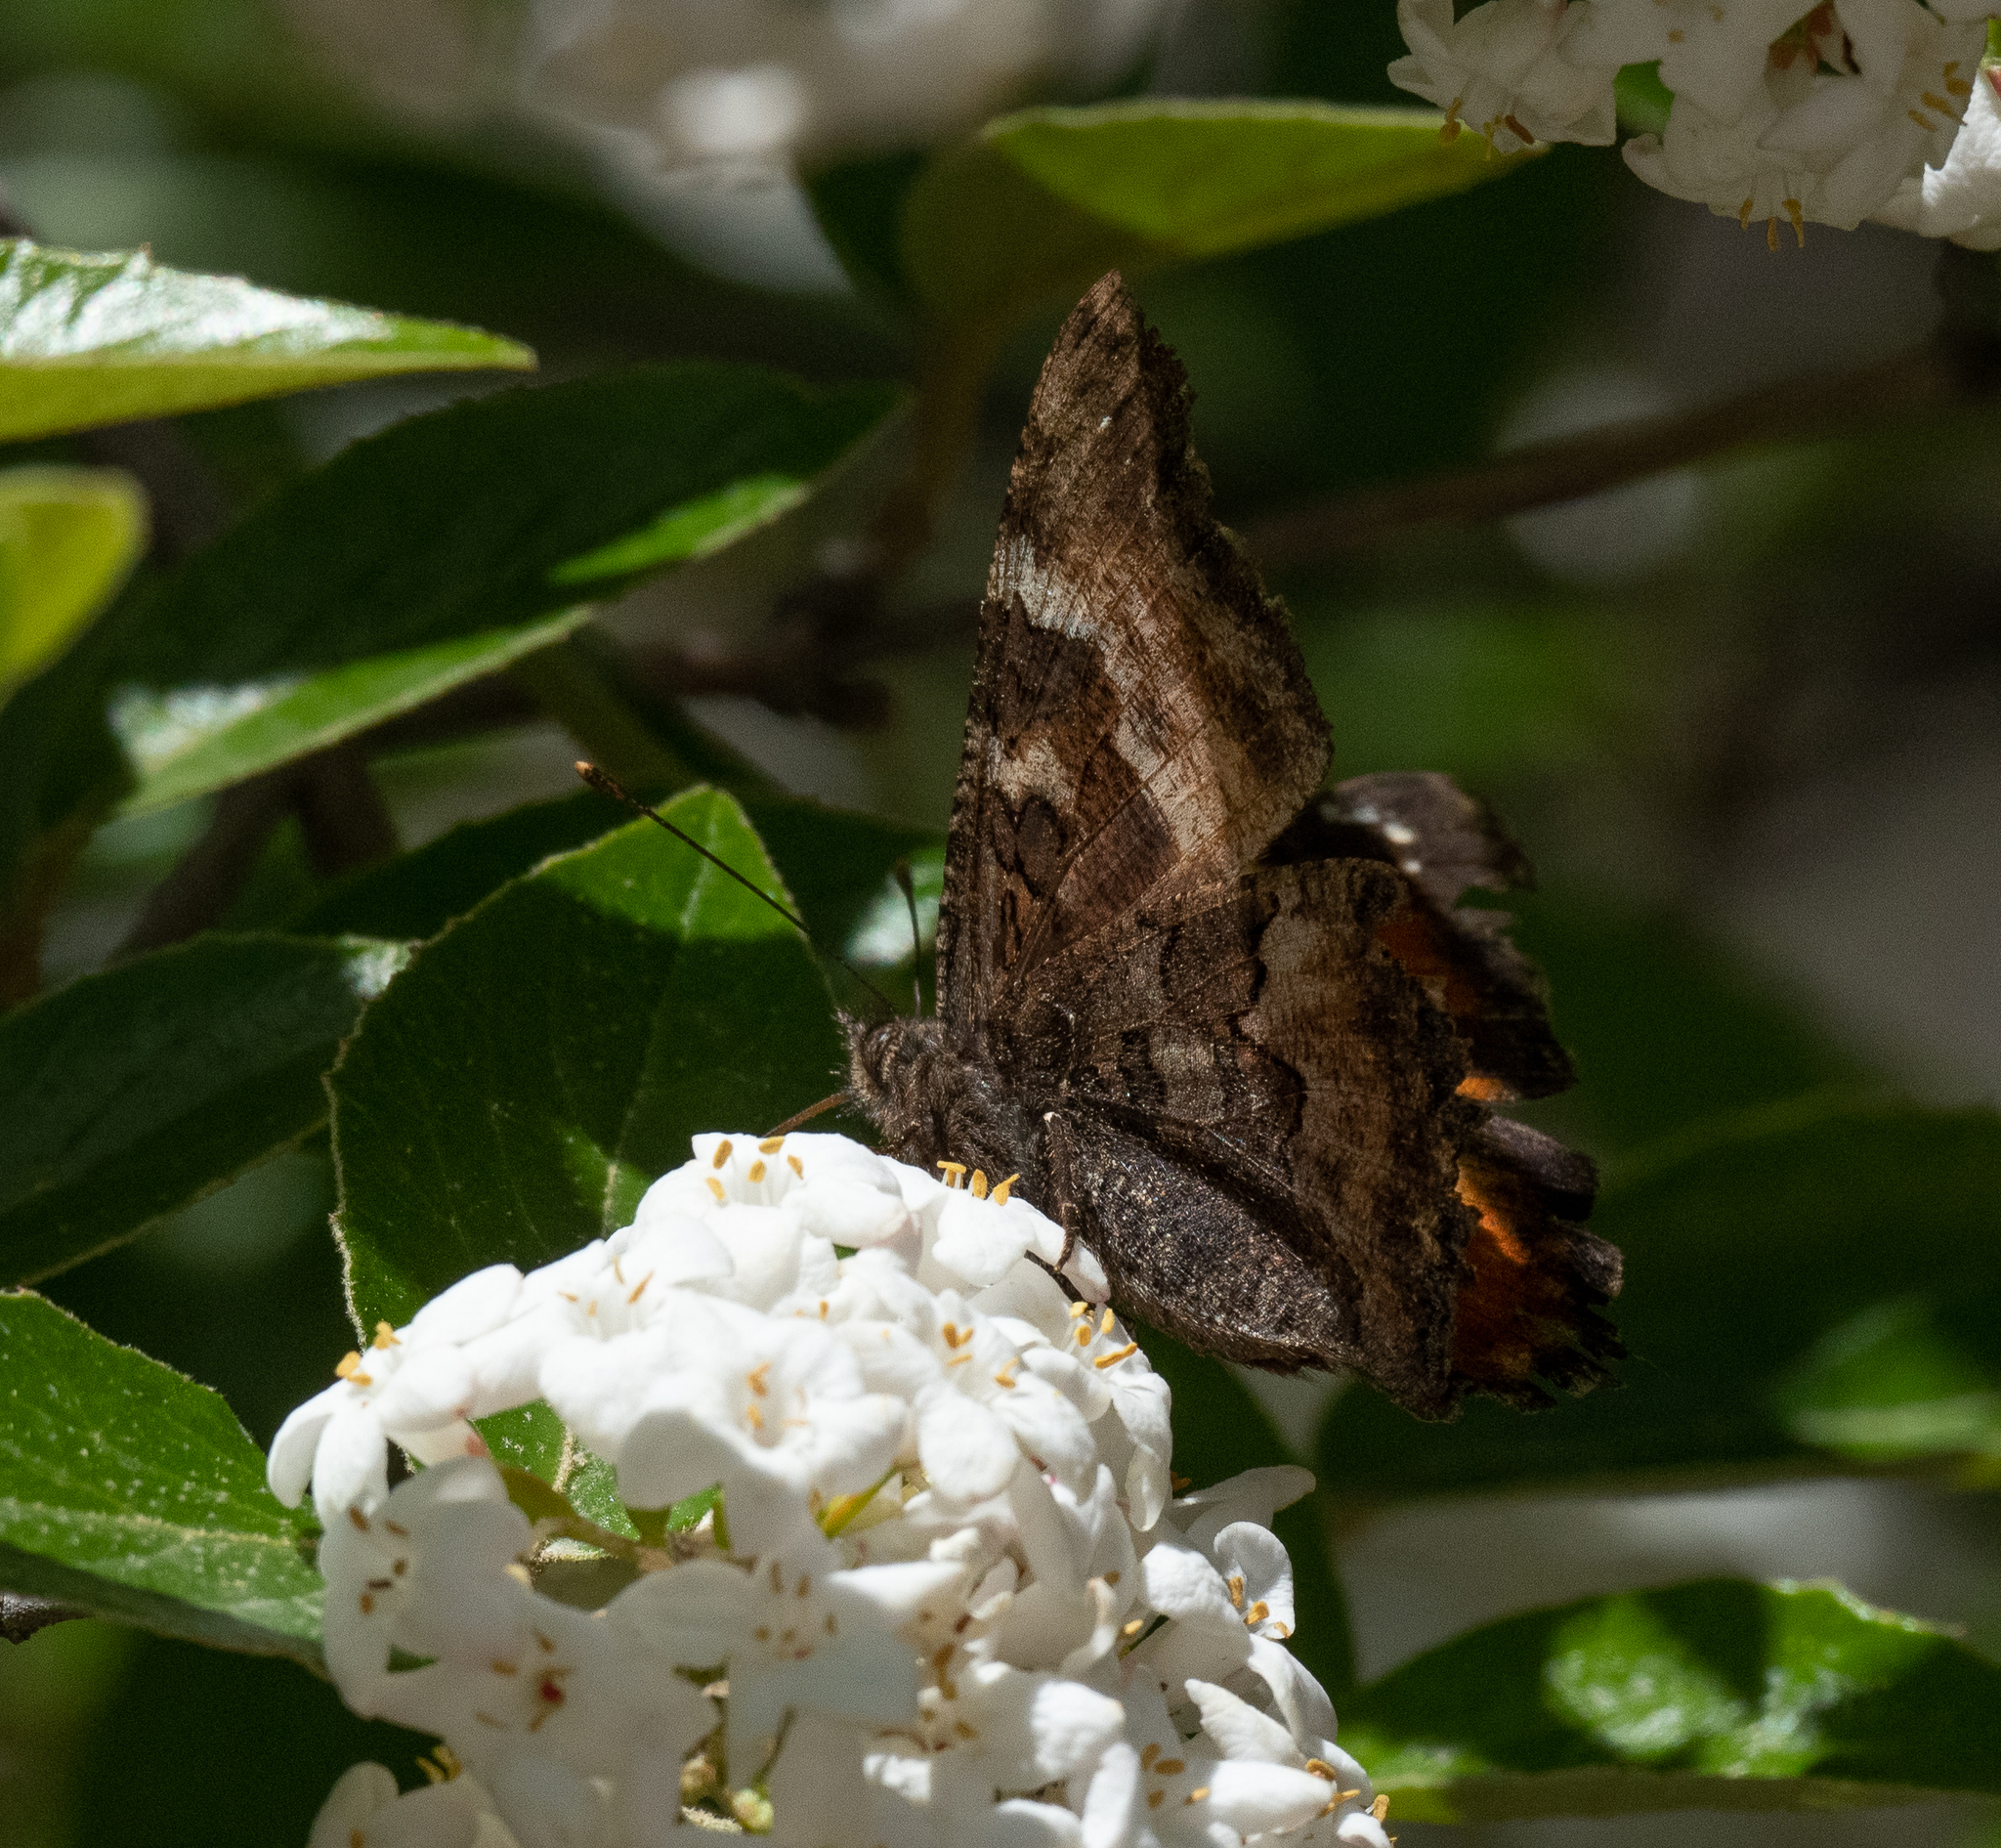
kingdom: Animalia
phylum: Arthropoda
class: Insecta
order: Lepidoptera
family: Nymphalidae
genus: Nymphalis
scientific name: Nymphalis californica
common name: California tortoiseshell
